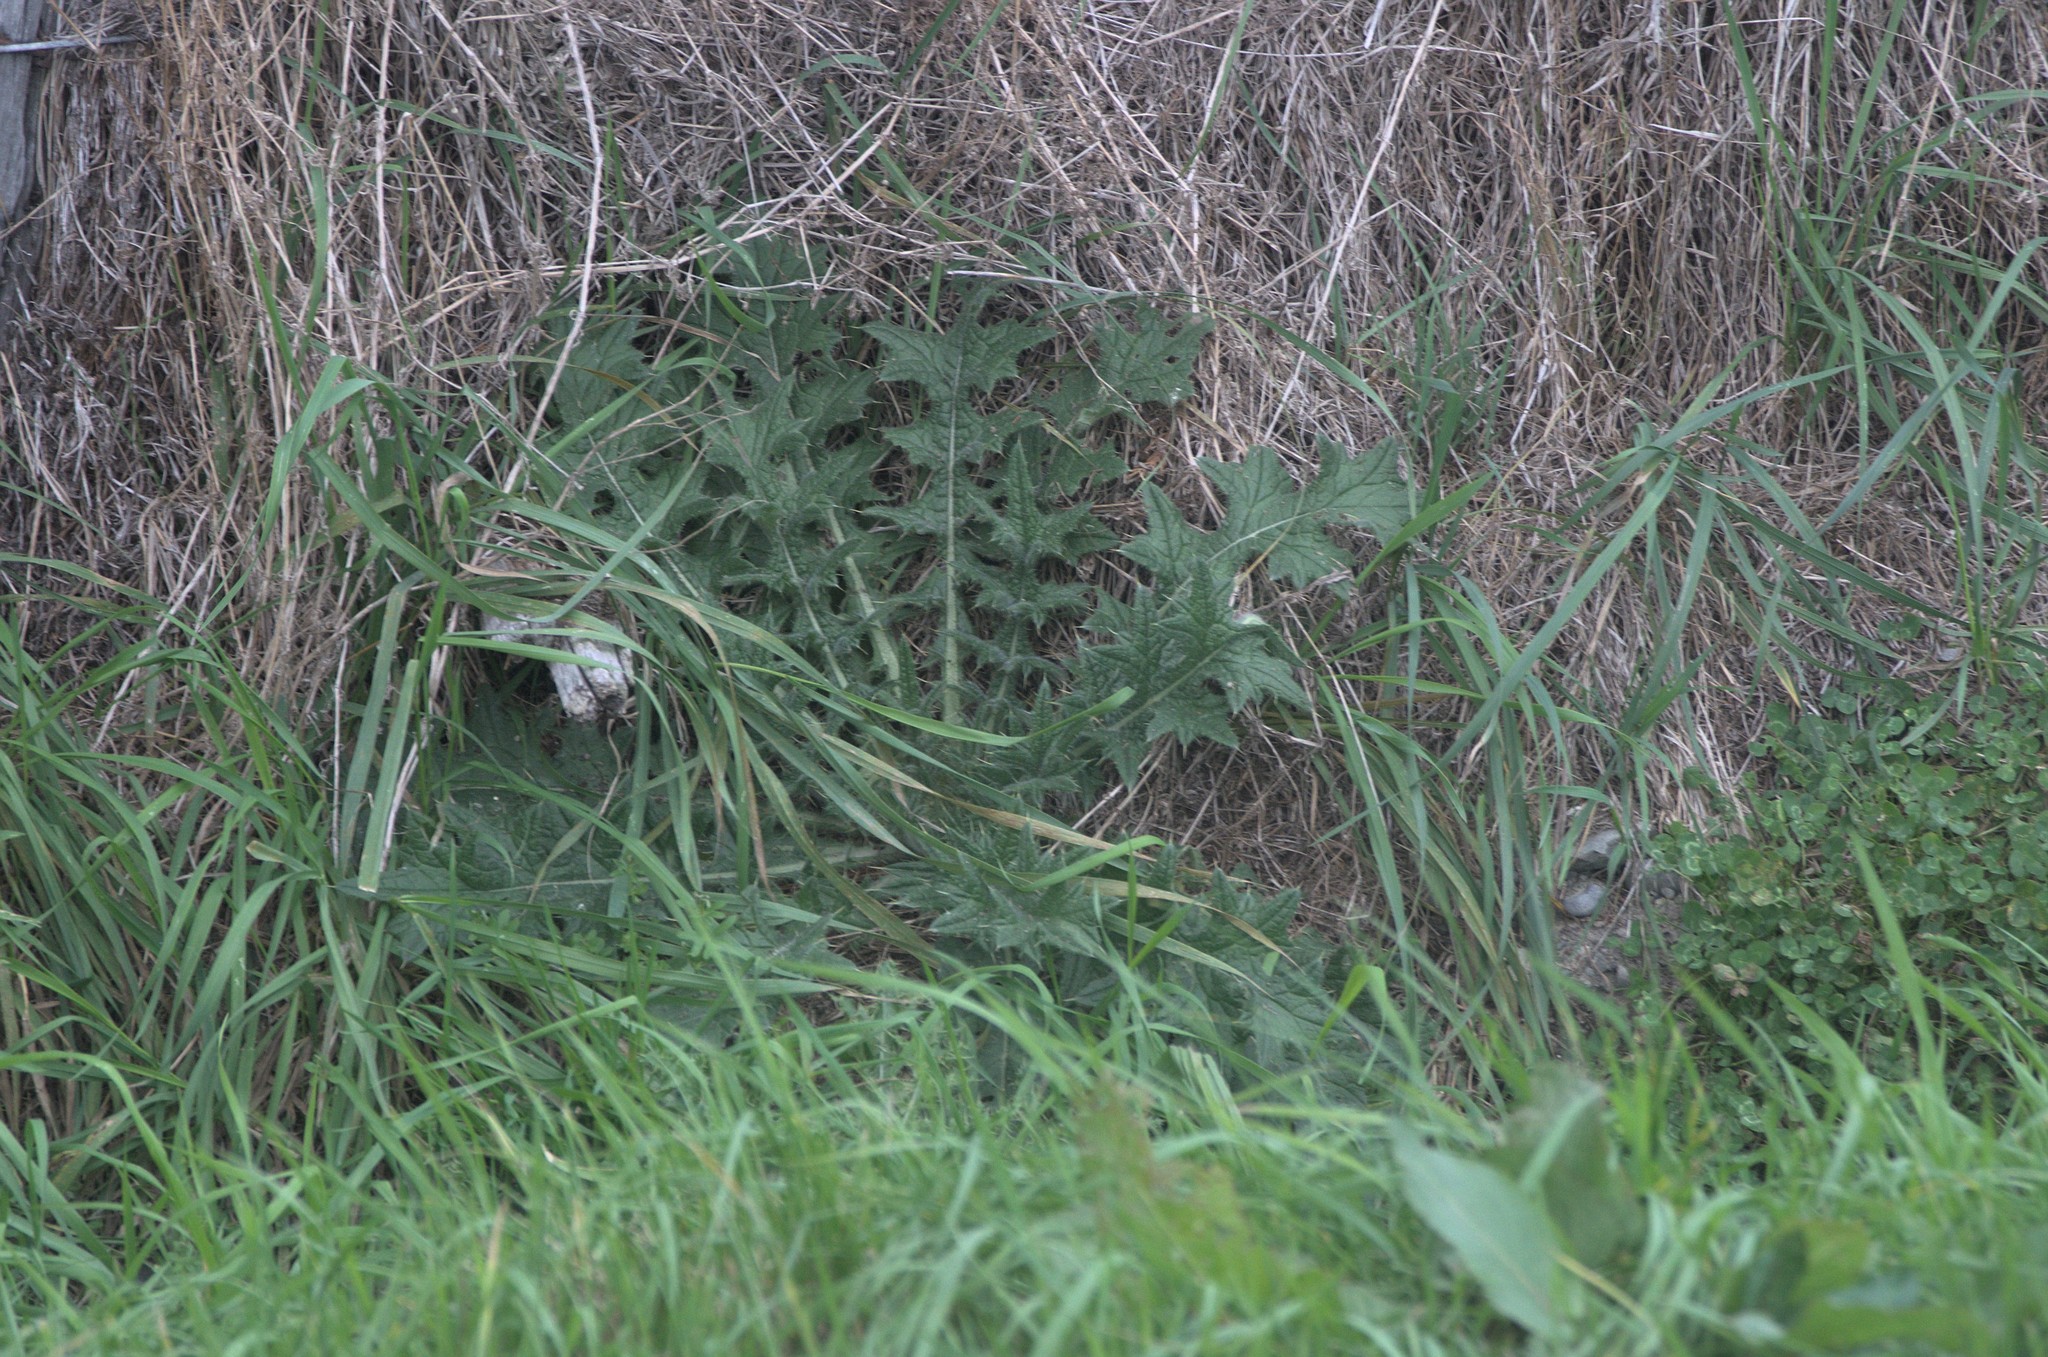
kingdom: Plantae
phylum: Tracheophyta
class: Magnoliopsida
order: Asterales
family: Asteraceae
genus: Cirsium
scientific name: Cirsium vulgare
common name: Bull thistle
